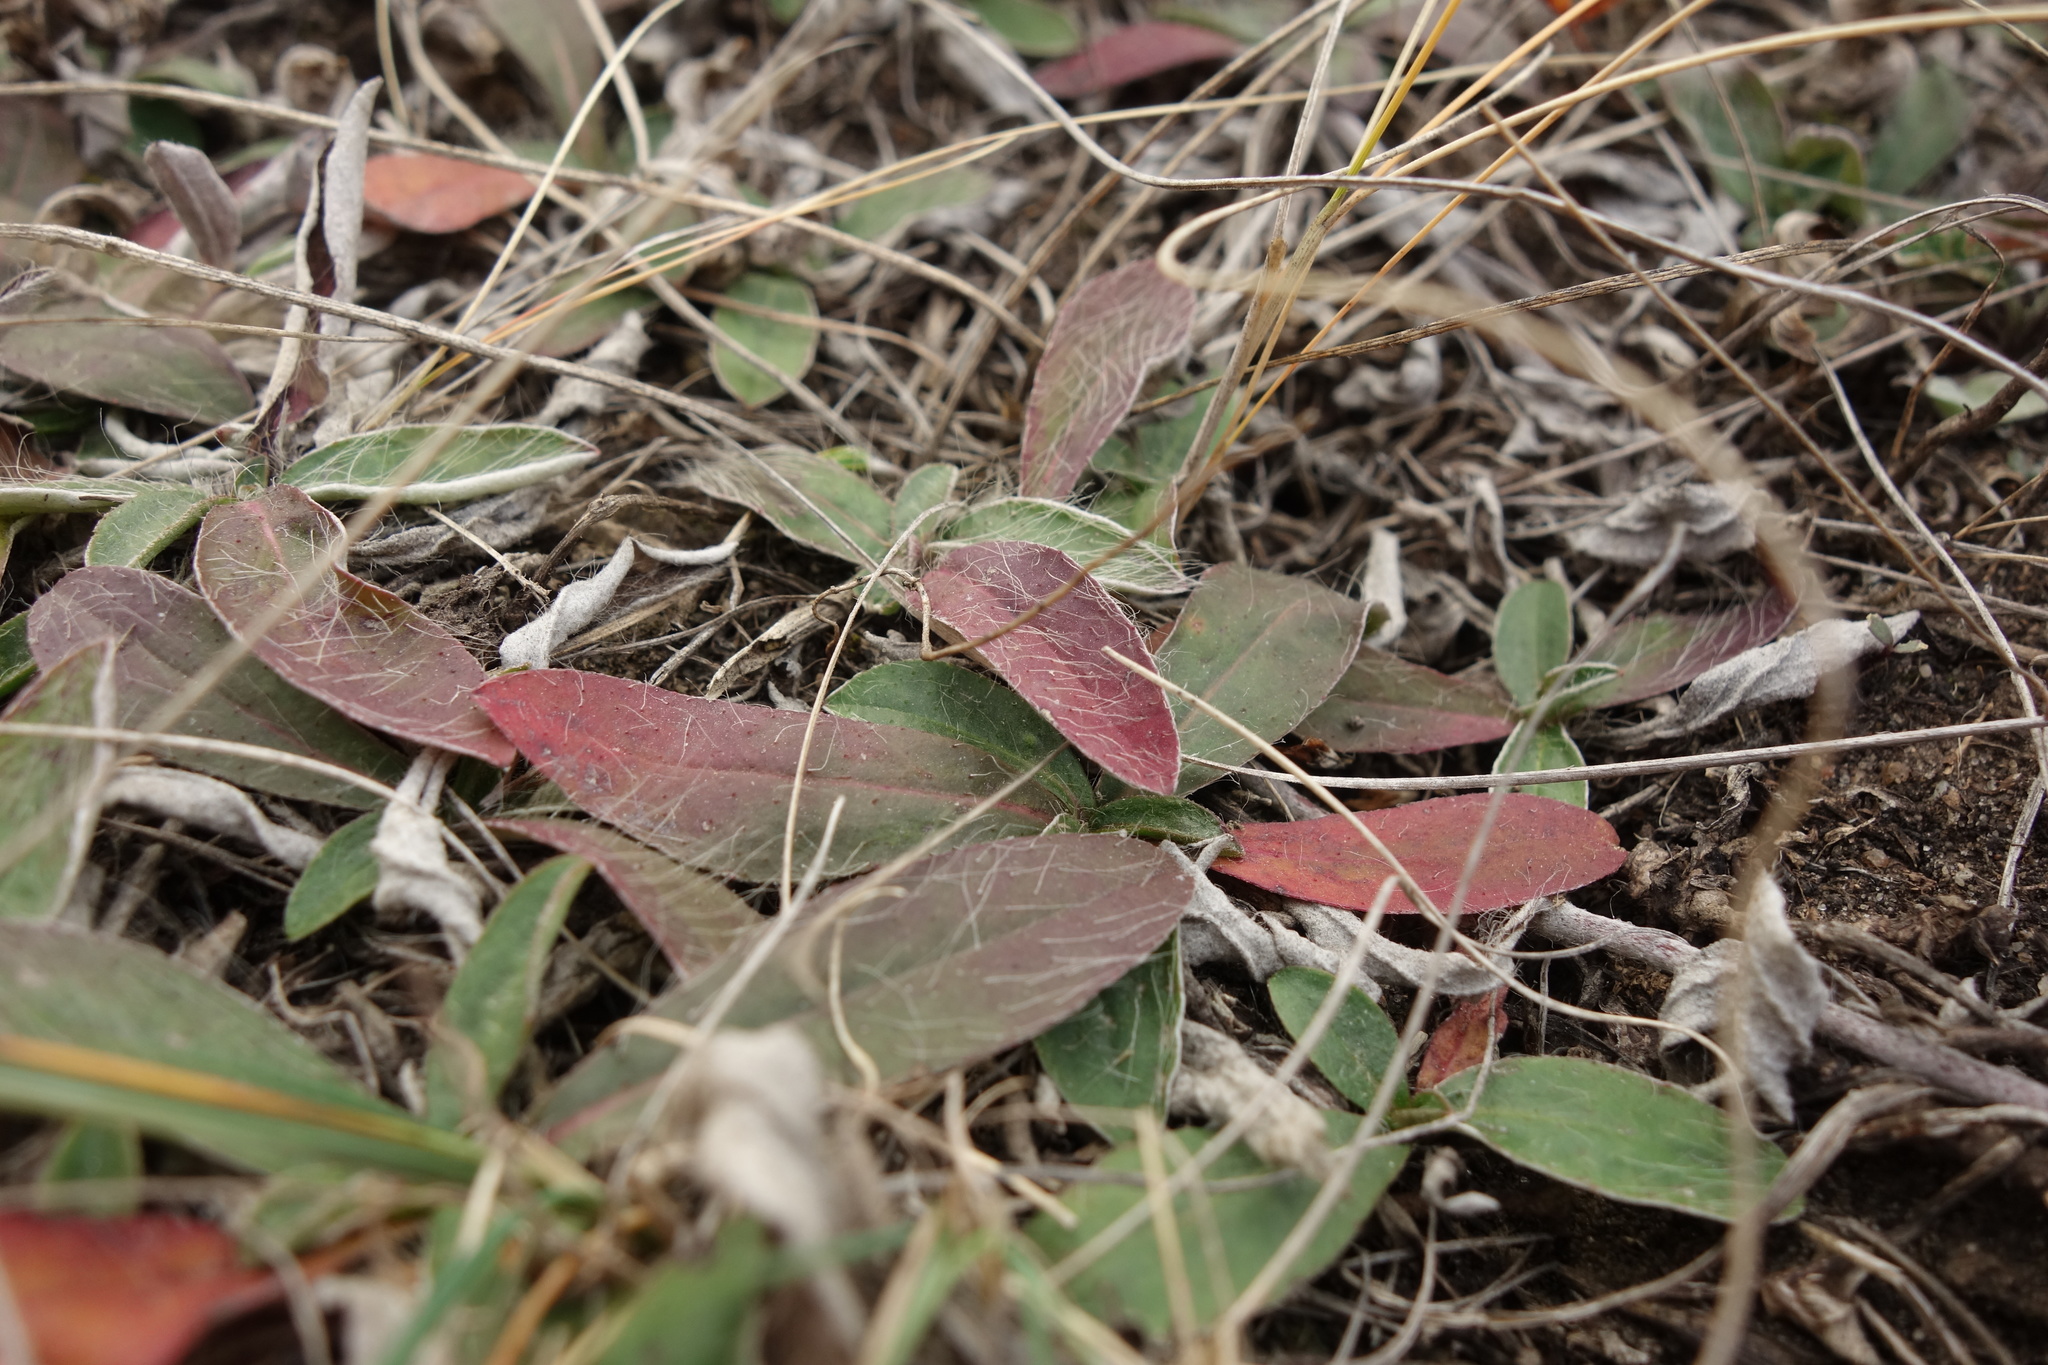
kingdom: Plantae
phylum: Tracheophyta
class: Magnoliopsida
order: Asterales
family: Asteraceae
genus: Pilosella
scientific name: Pilosella officinarum
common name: Mouse-ear hawkweed
